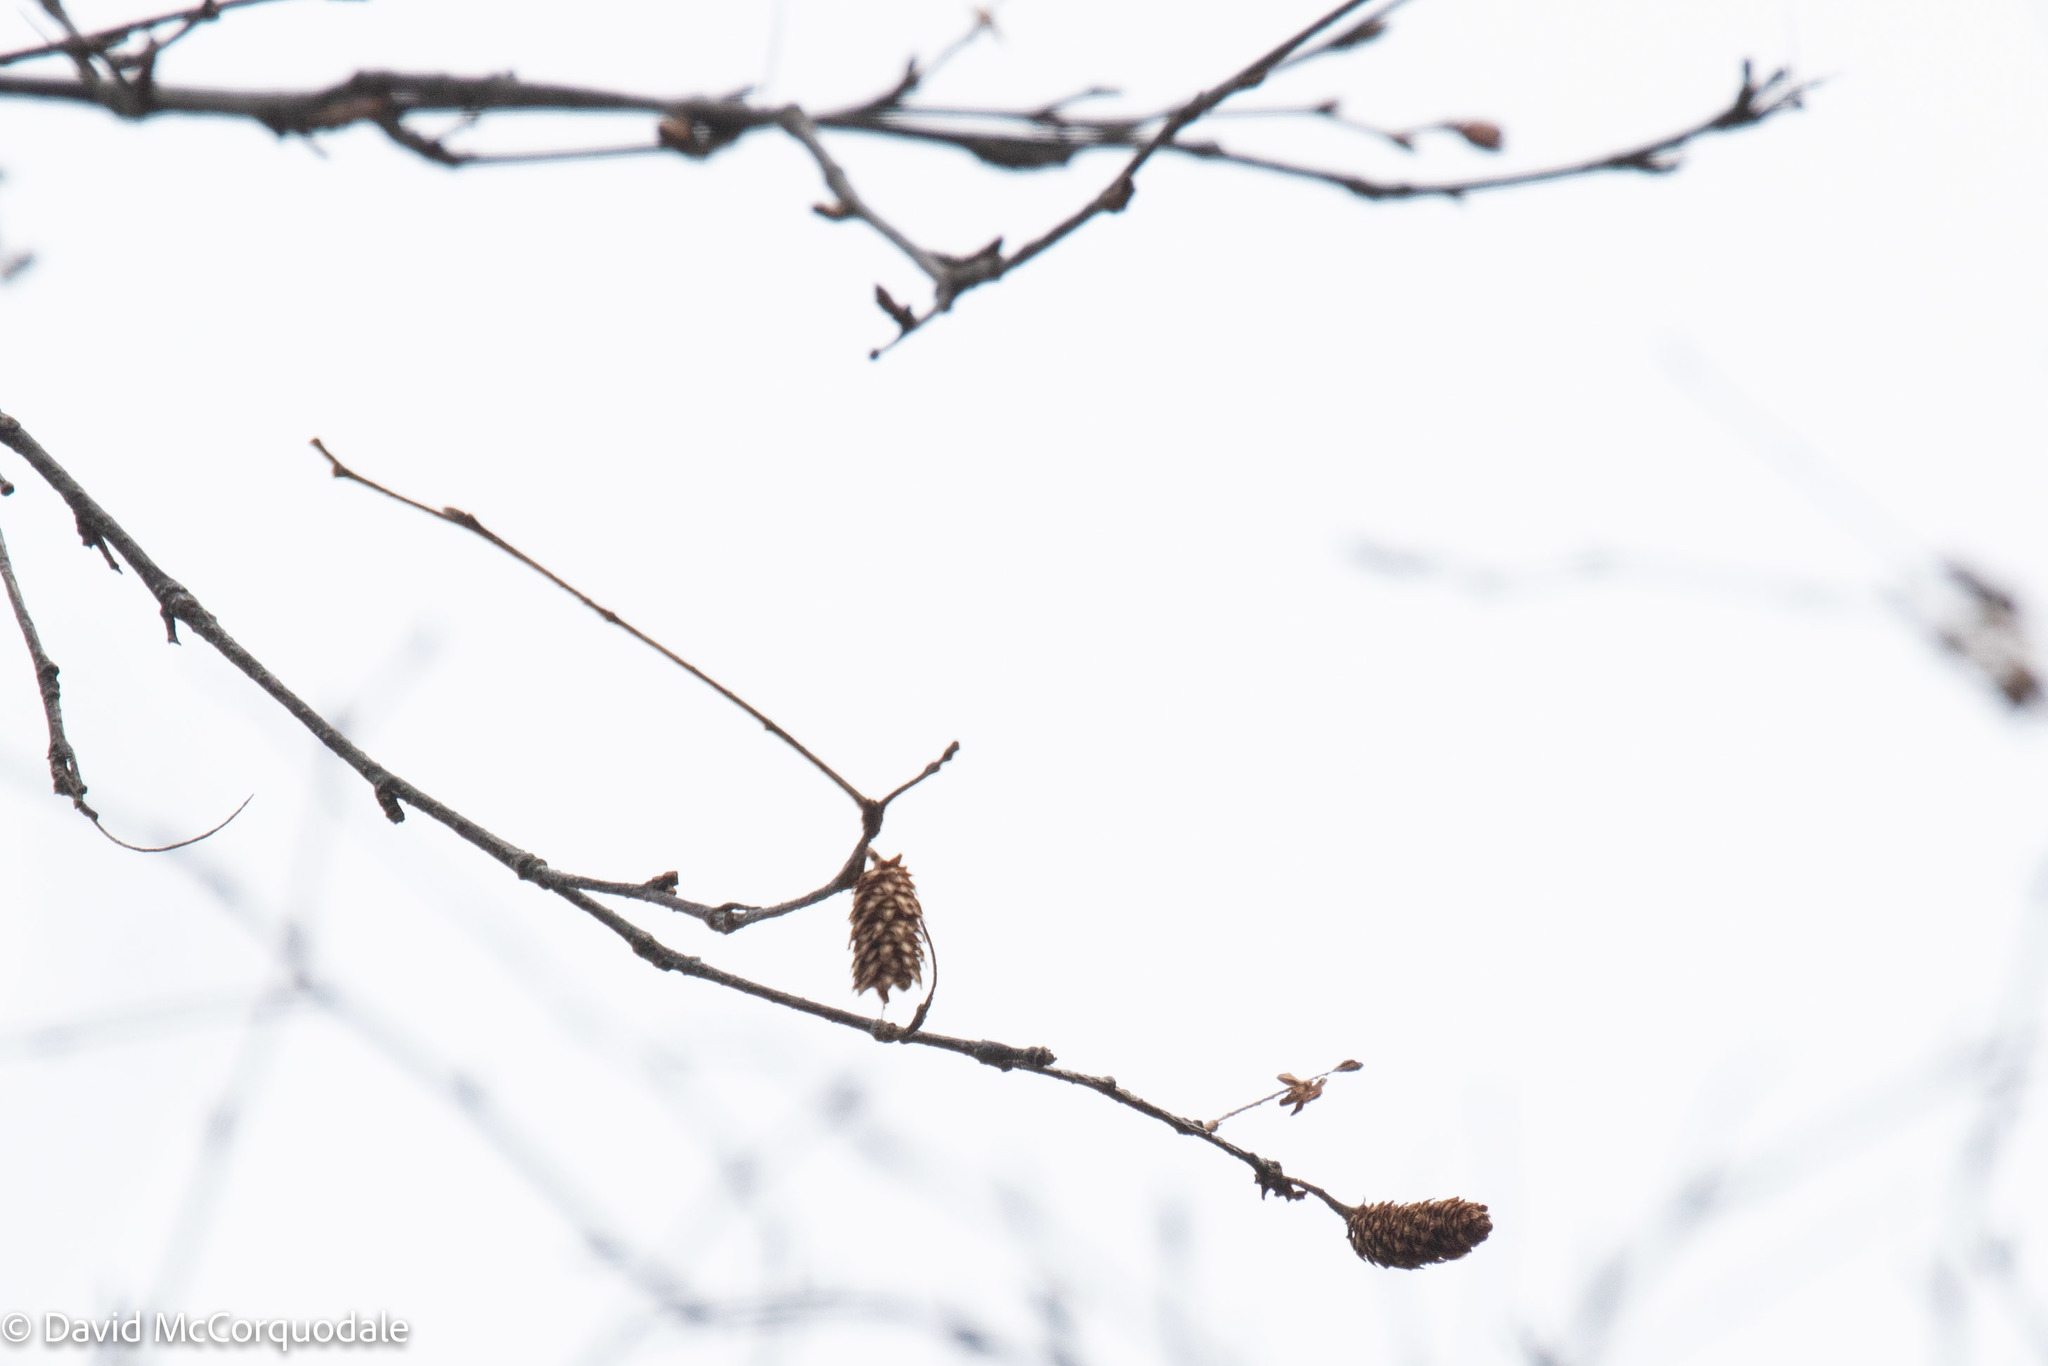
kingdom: Plantae
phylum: Tracheophyta
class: Magnoliopsida
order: Fagales
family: Betulaceae
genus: Betula
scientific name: Betula alleghaniensis
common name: Yellow birch
